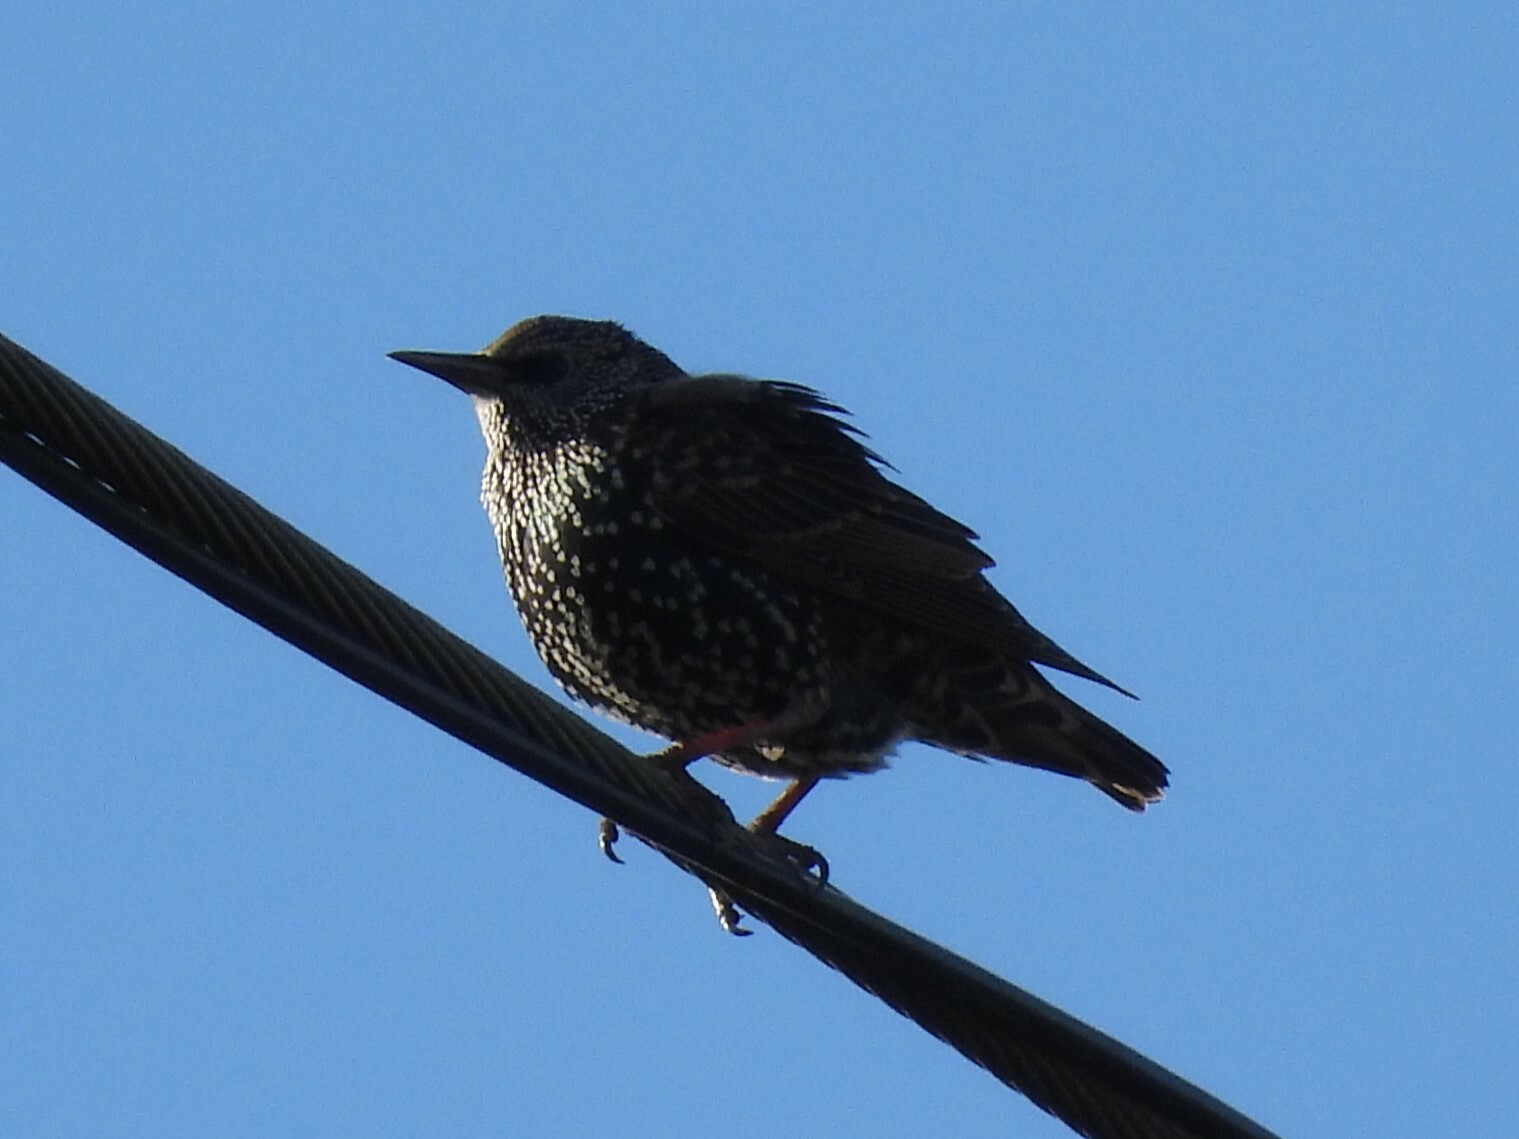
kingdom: Animalia
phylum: Chordata
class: Aves
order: Passeriformes
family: Sturnidae
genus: Sturnus
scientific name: Sturnus vulgaris
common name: Common starling
